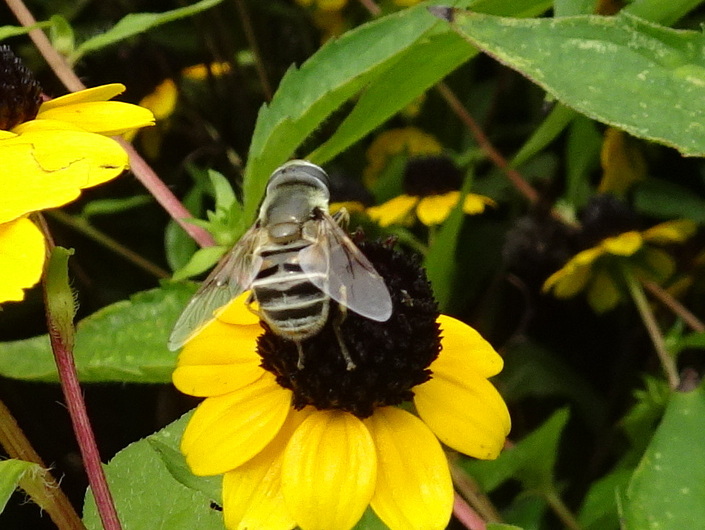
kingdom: Animalia
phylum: Arthropoda
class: Insecta
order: Diptera
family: Syrphidae
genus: Eristalis
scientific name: Eristalis stipator
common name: Yellow-shouldered drone fly
